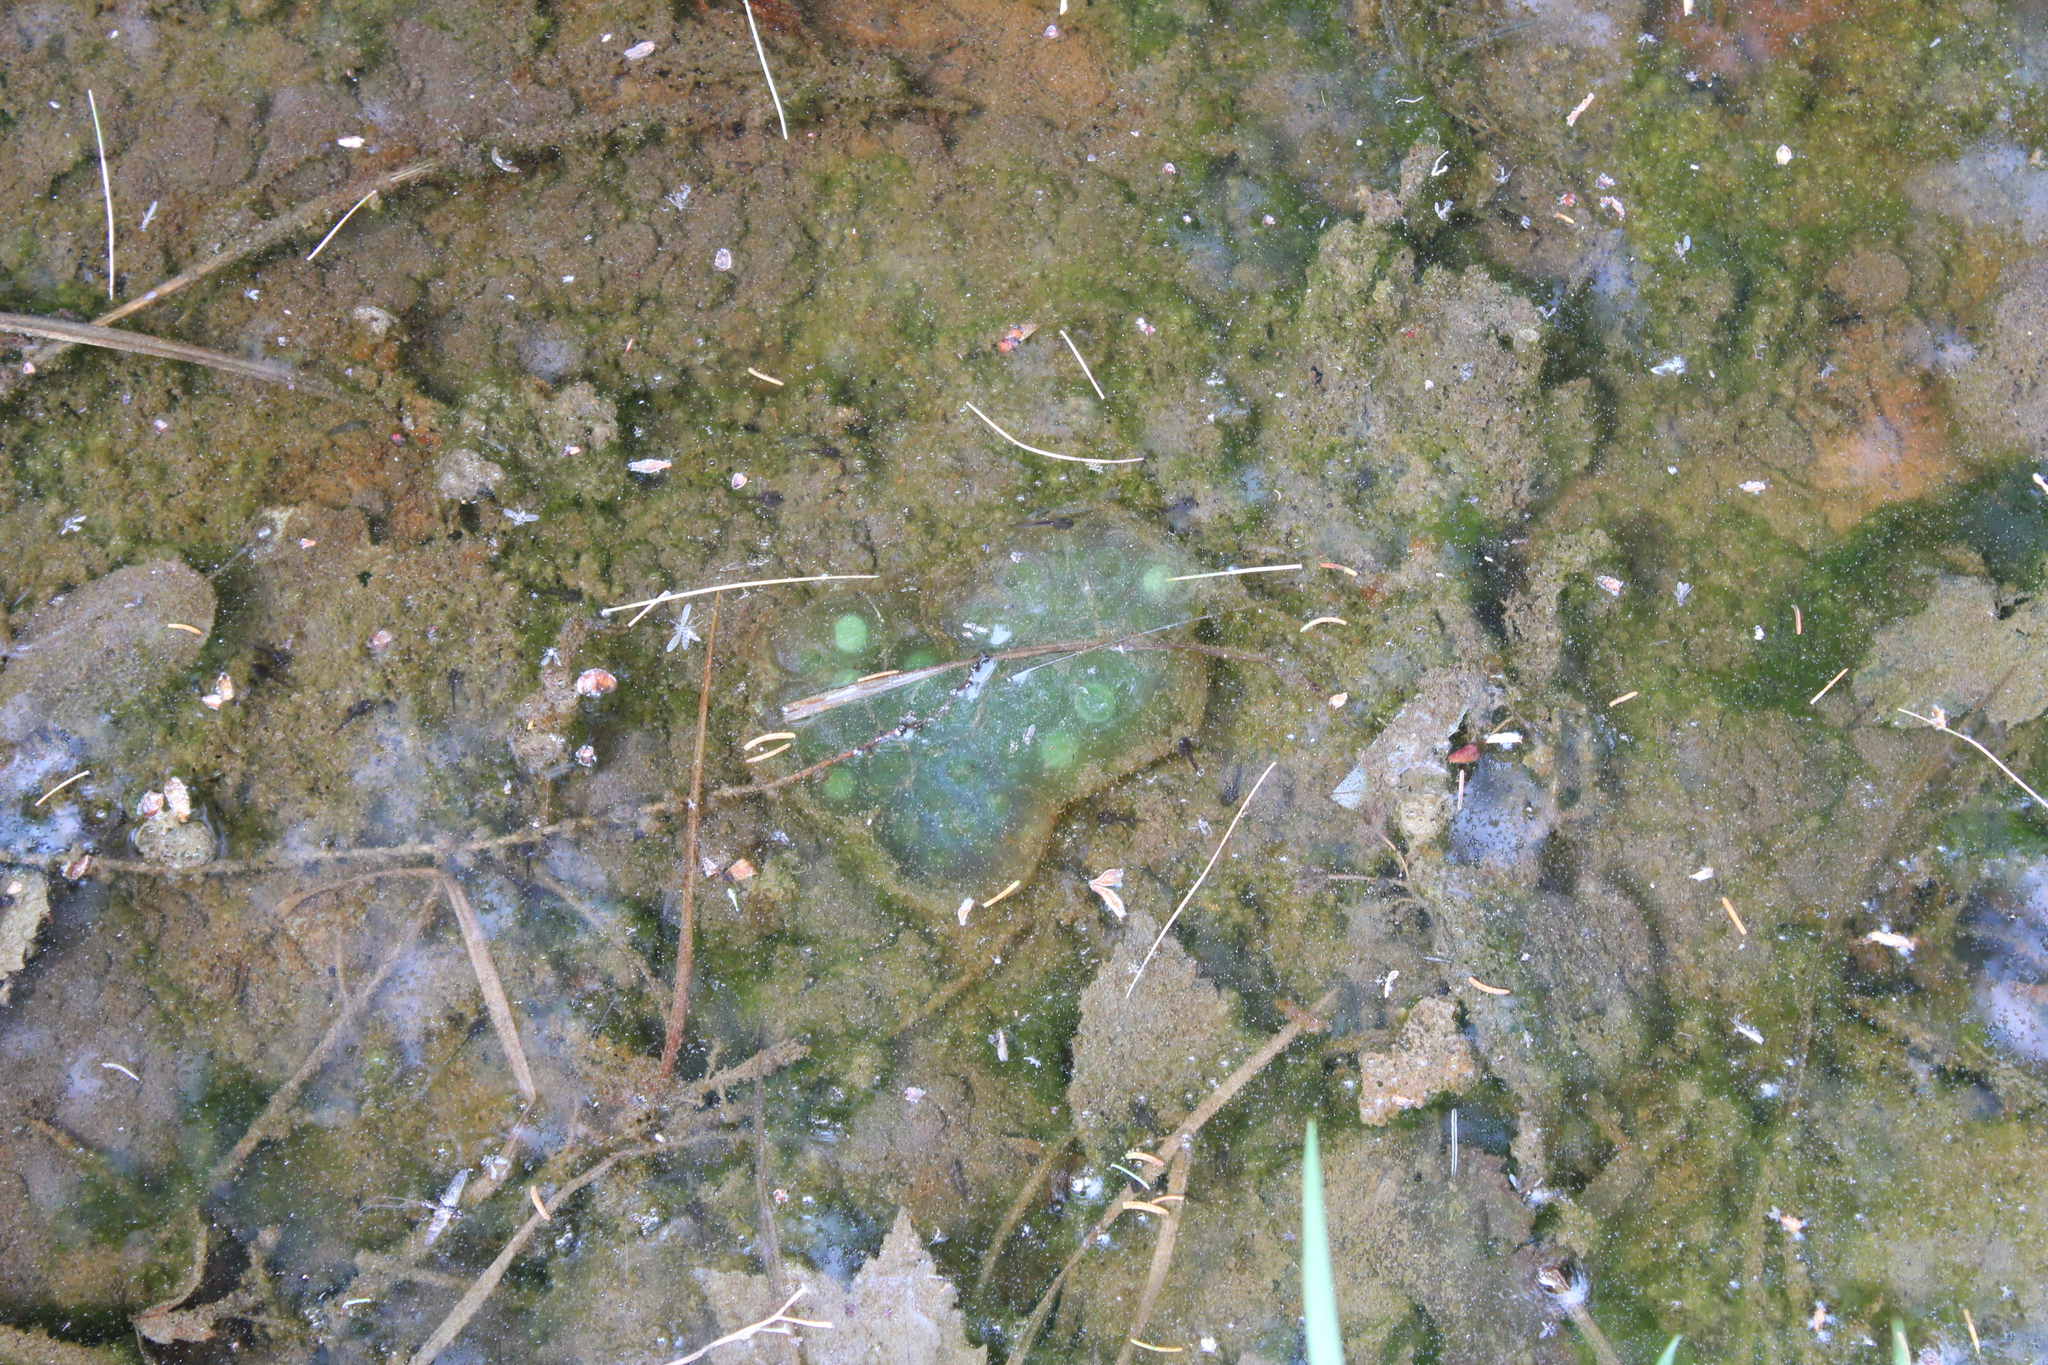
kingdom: Animalia
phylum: Chordata
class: Amphibia
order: Caudata
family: Ambystomatidae
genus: Ambystoma
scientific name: Ambystoma maculatum
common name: Spotted salamander
